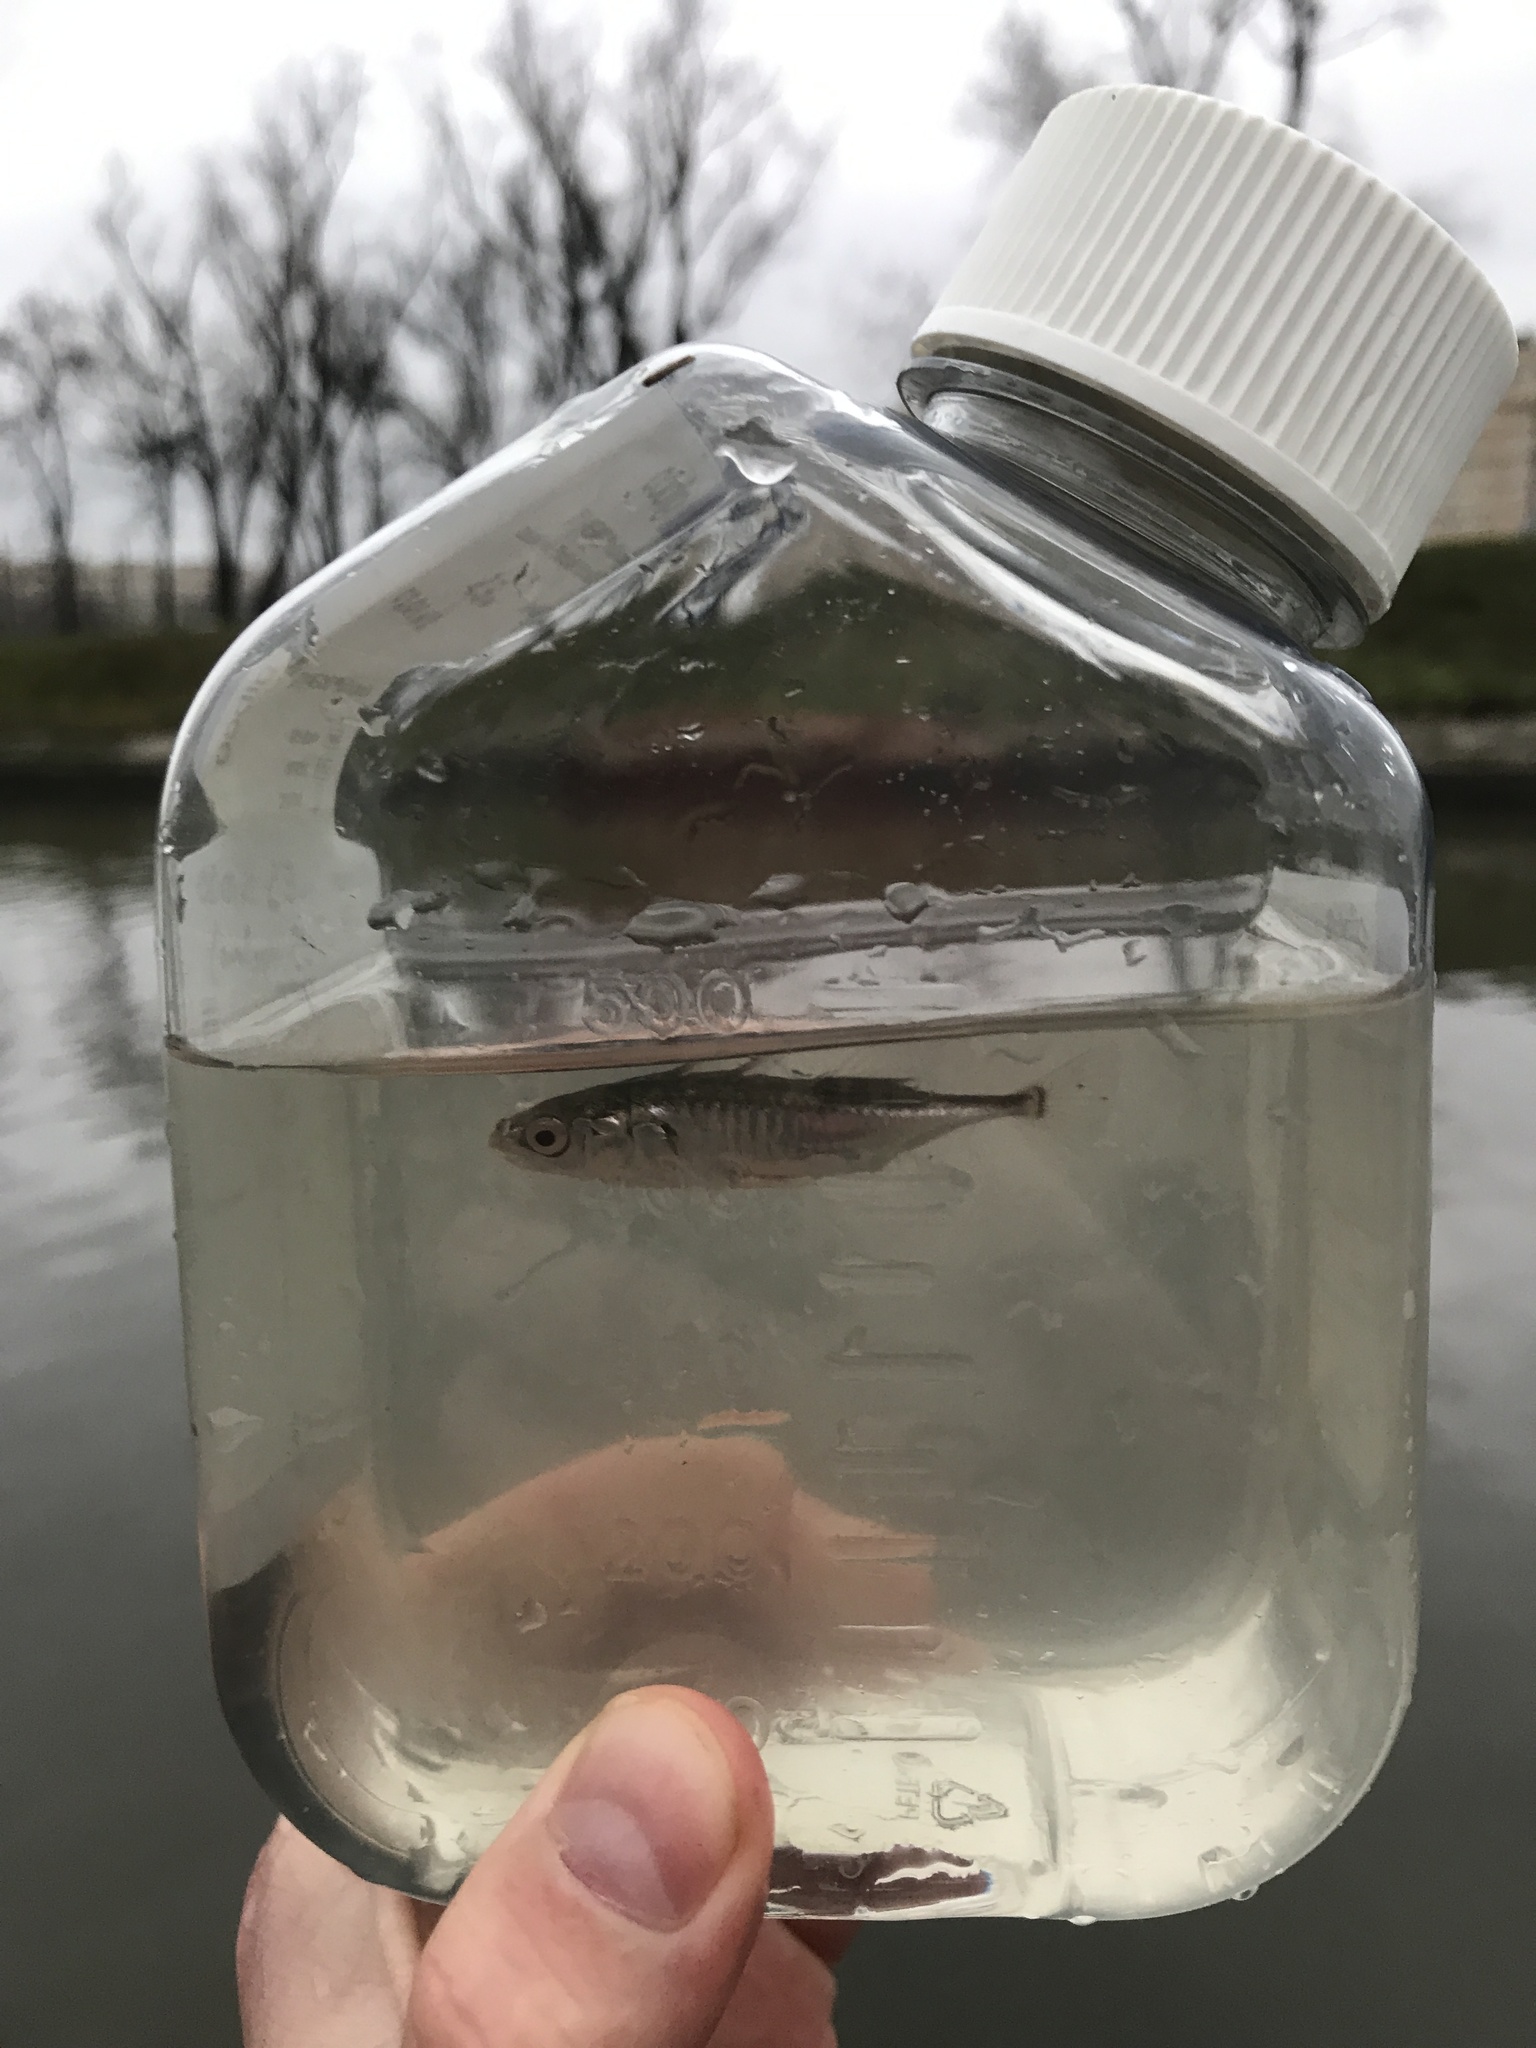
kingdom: Animalia
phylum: Chordata
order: Gasterosteiformes
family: Gasterosteidae
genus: Gasterosteus
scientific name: Gasterosteus aculeatus
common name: Three-spined stickleback
